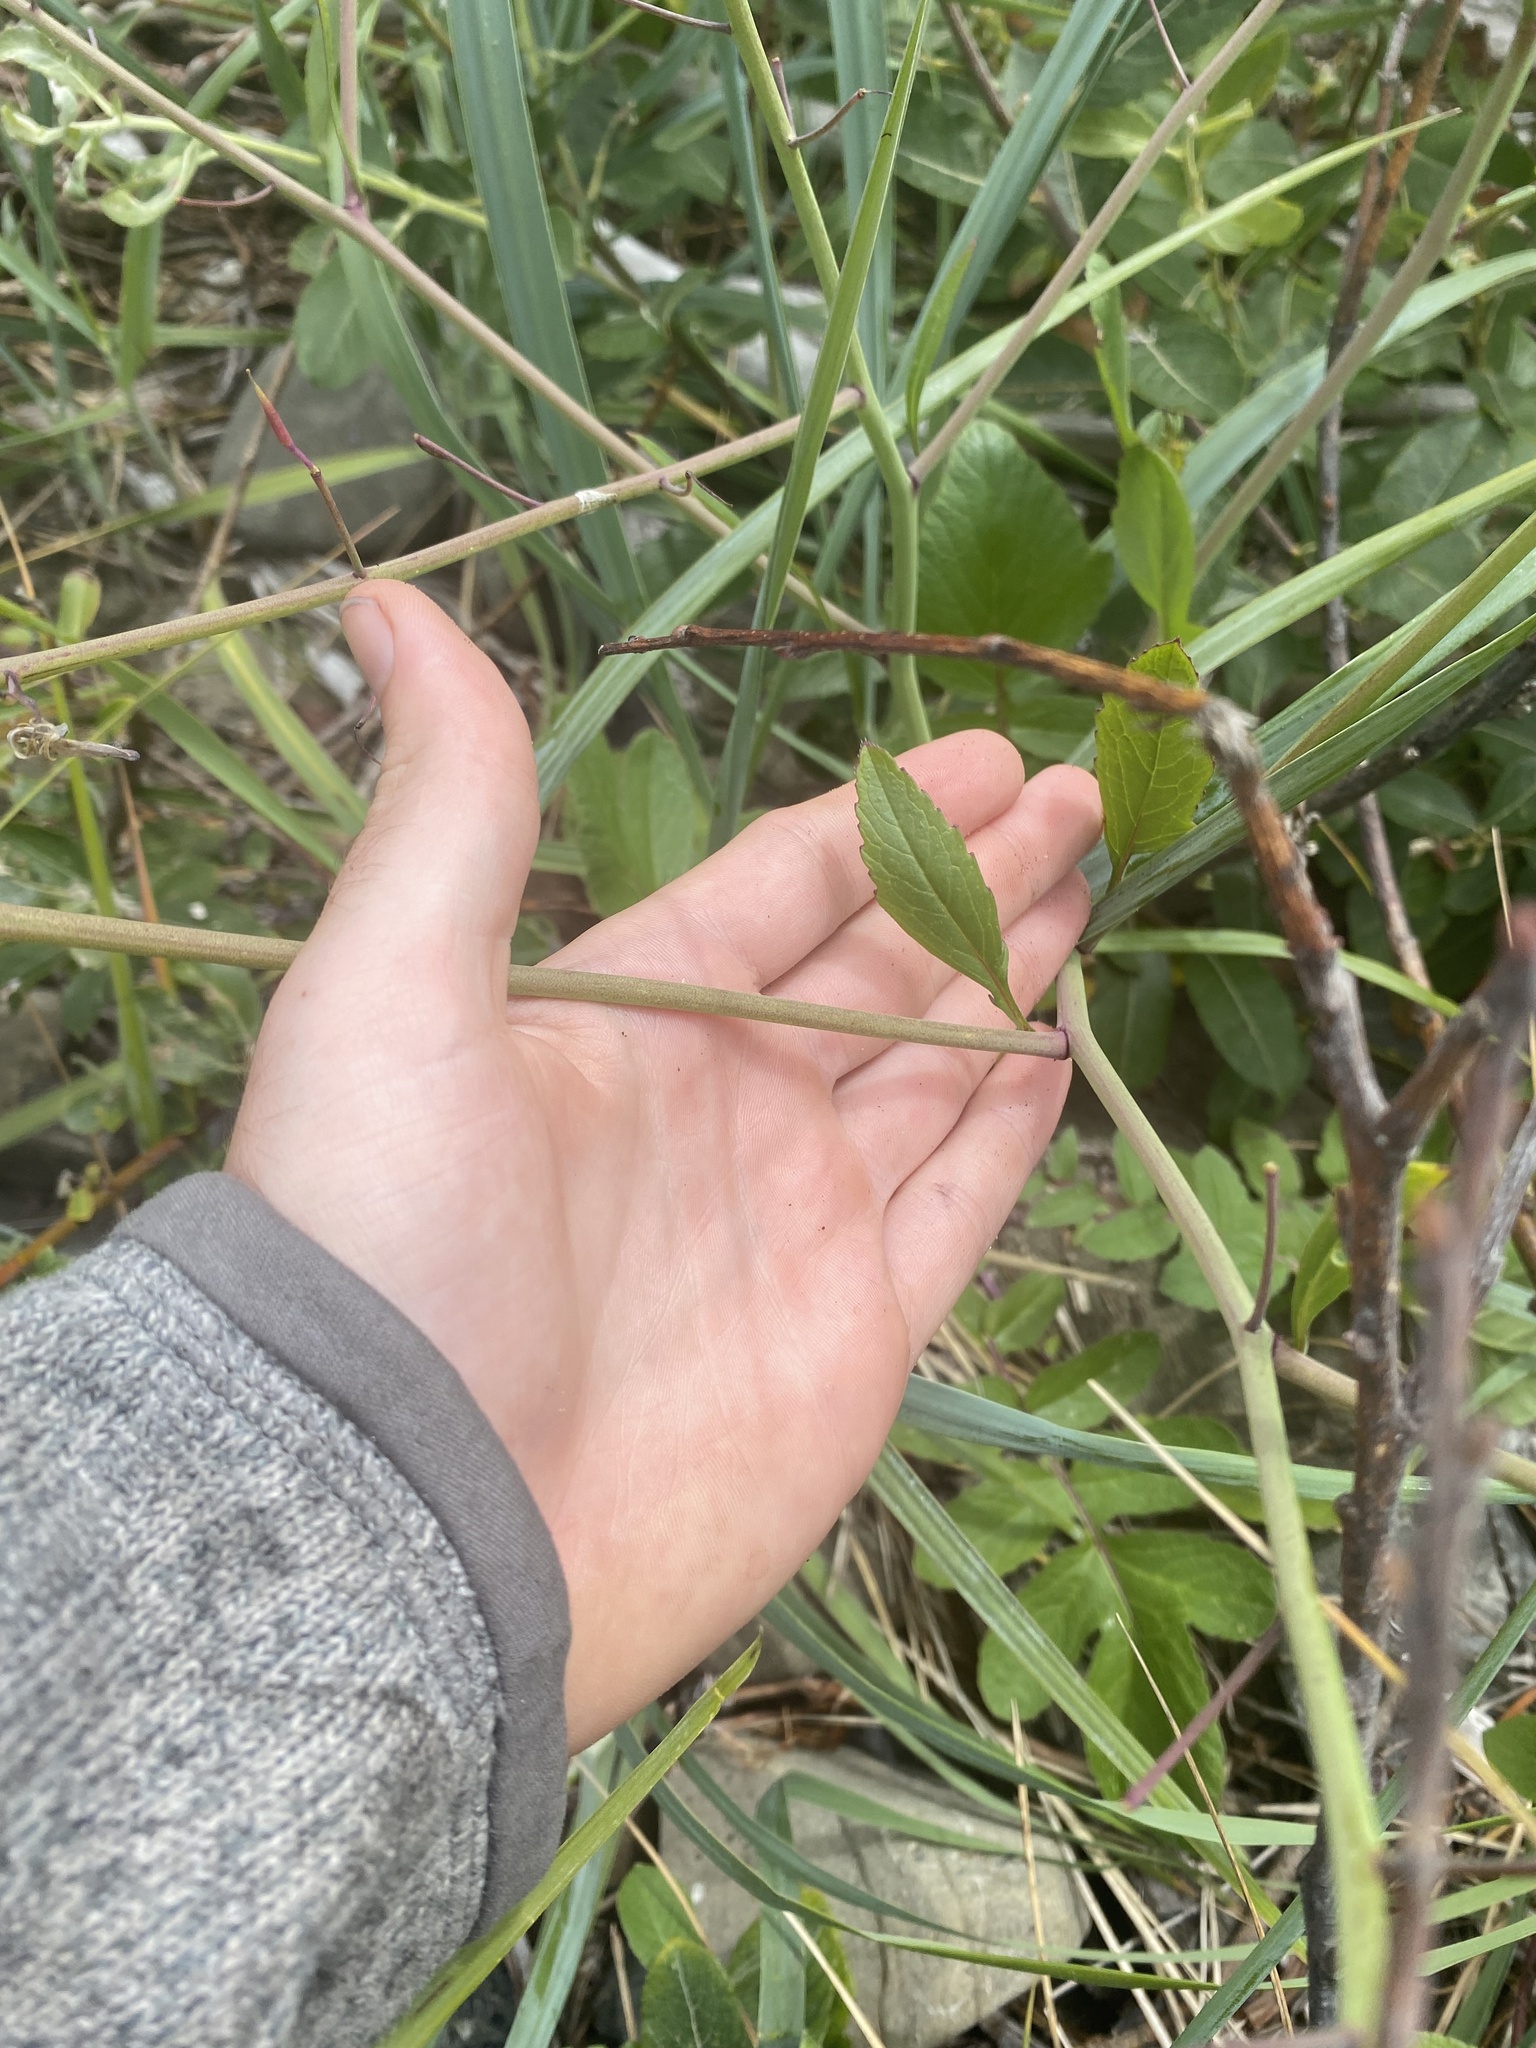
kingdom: Plantae
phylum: Tracheophyta
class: Magnoliopsida
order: Brassicales
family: Brassicaceae
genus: Raphanus
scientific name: Raphanus sativus
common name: Cultivated radish
